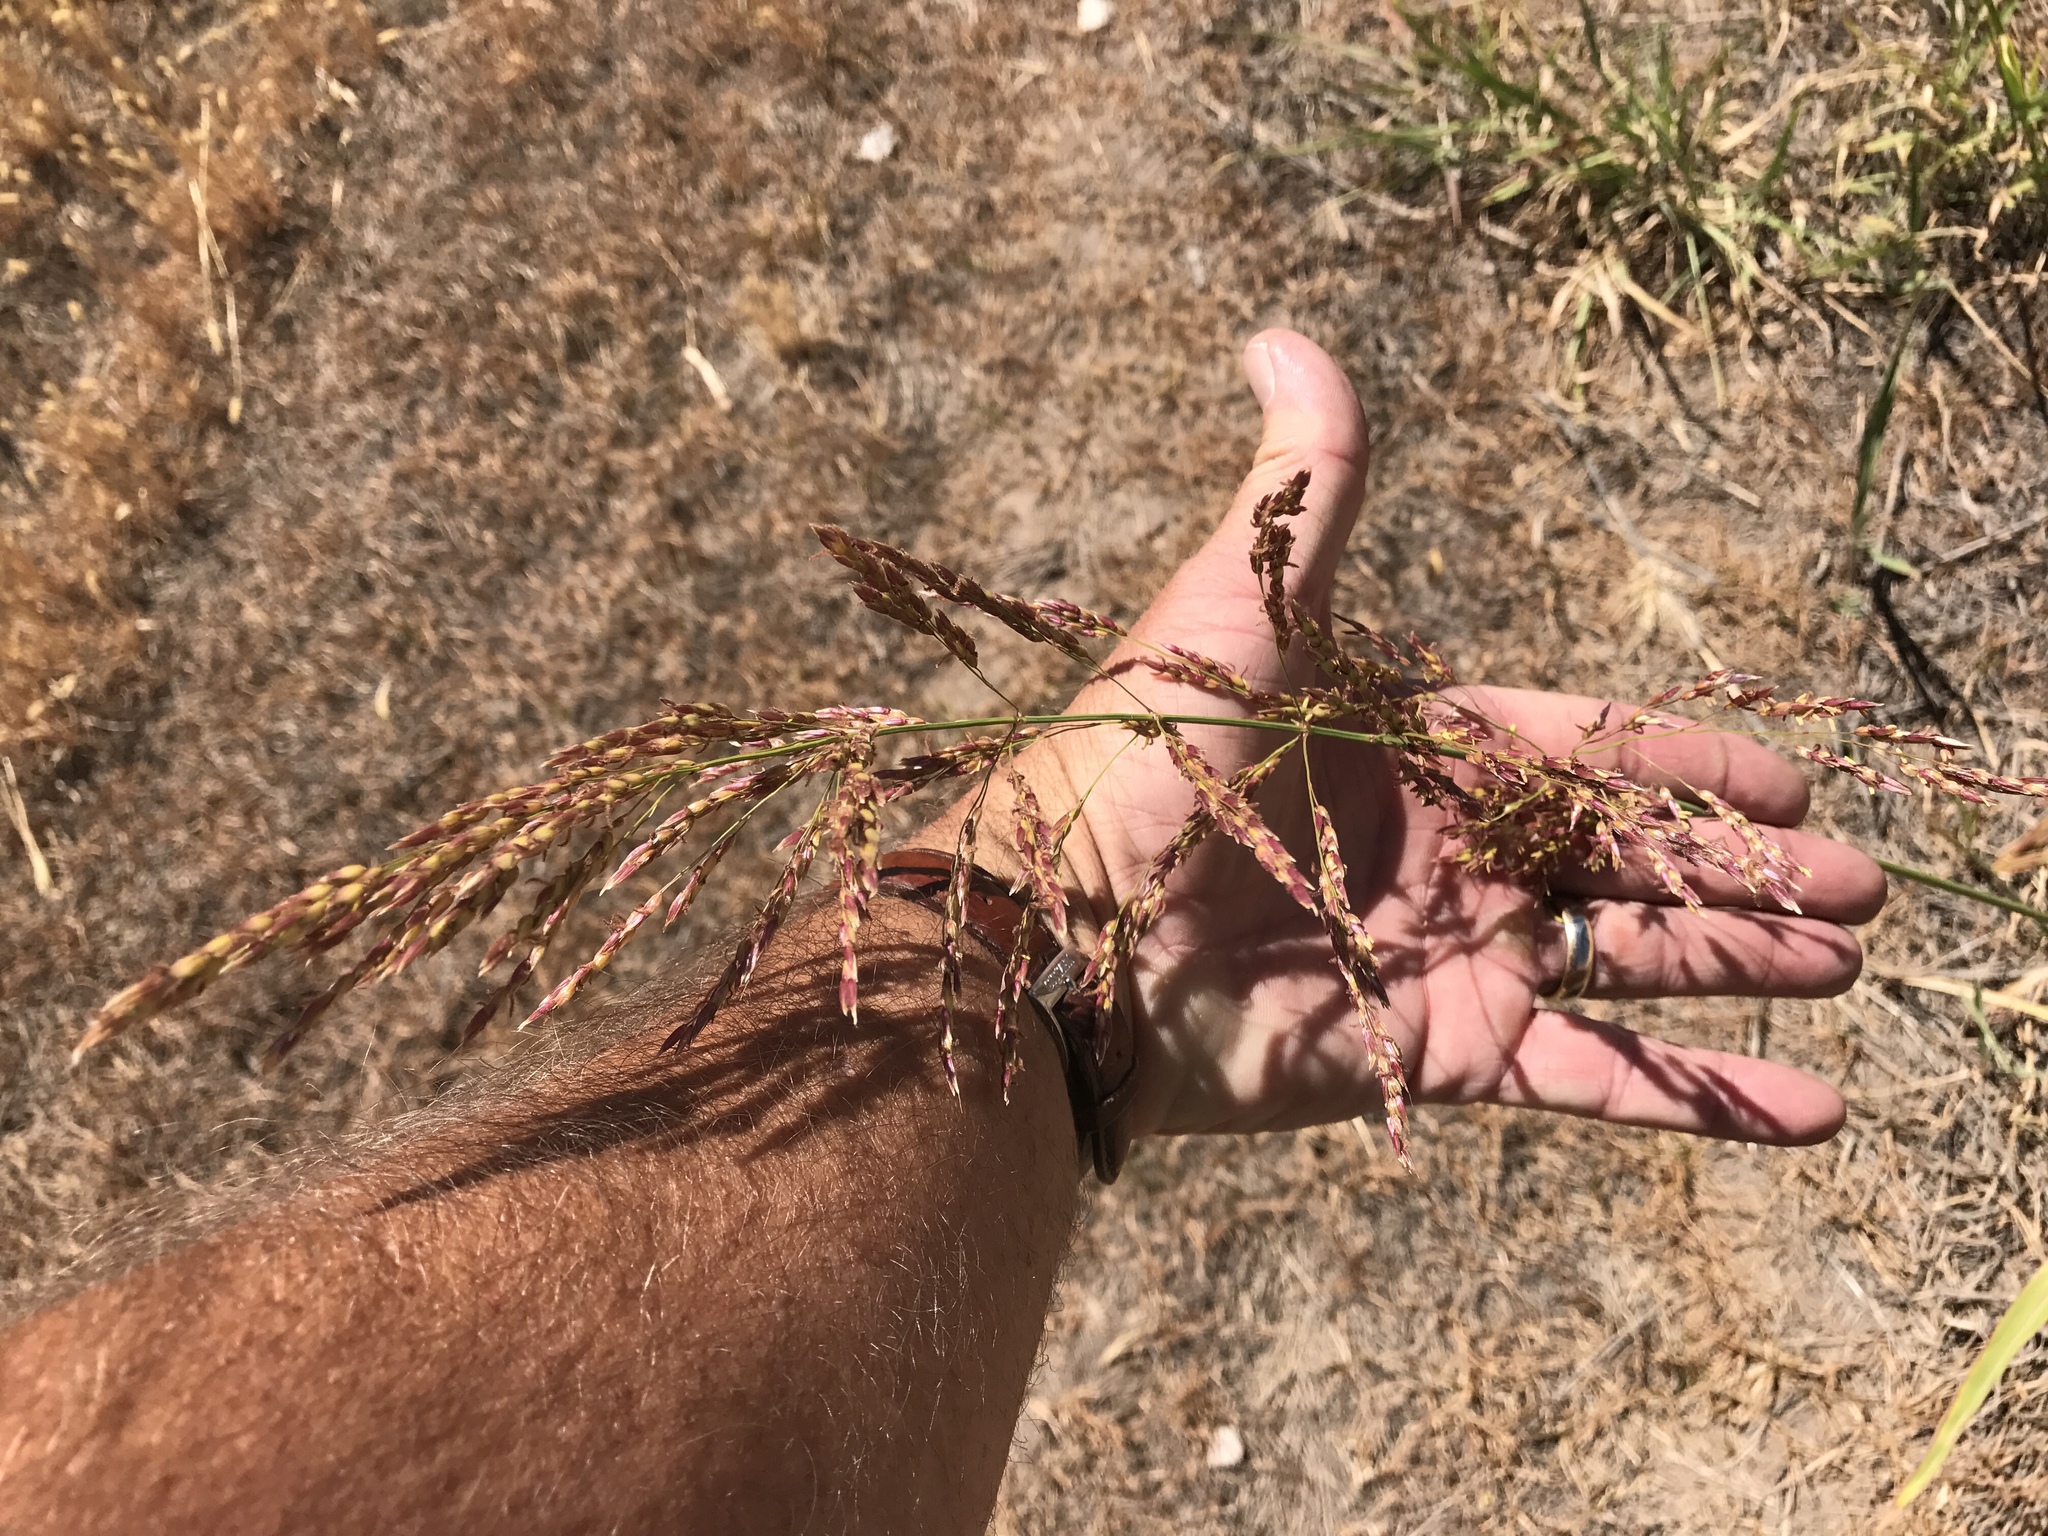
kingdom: Plantae
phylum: Tracheophyta
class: Liliopsida
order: Poales
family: Poaceae
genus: Sorghum
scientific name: Sorghum halepense
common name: Johnson-grass
